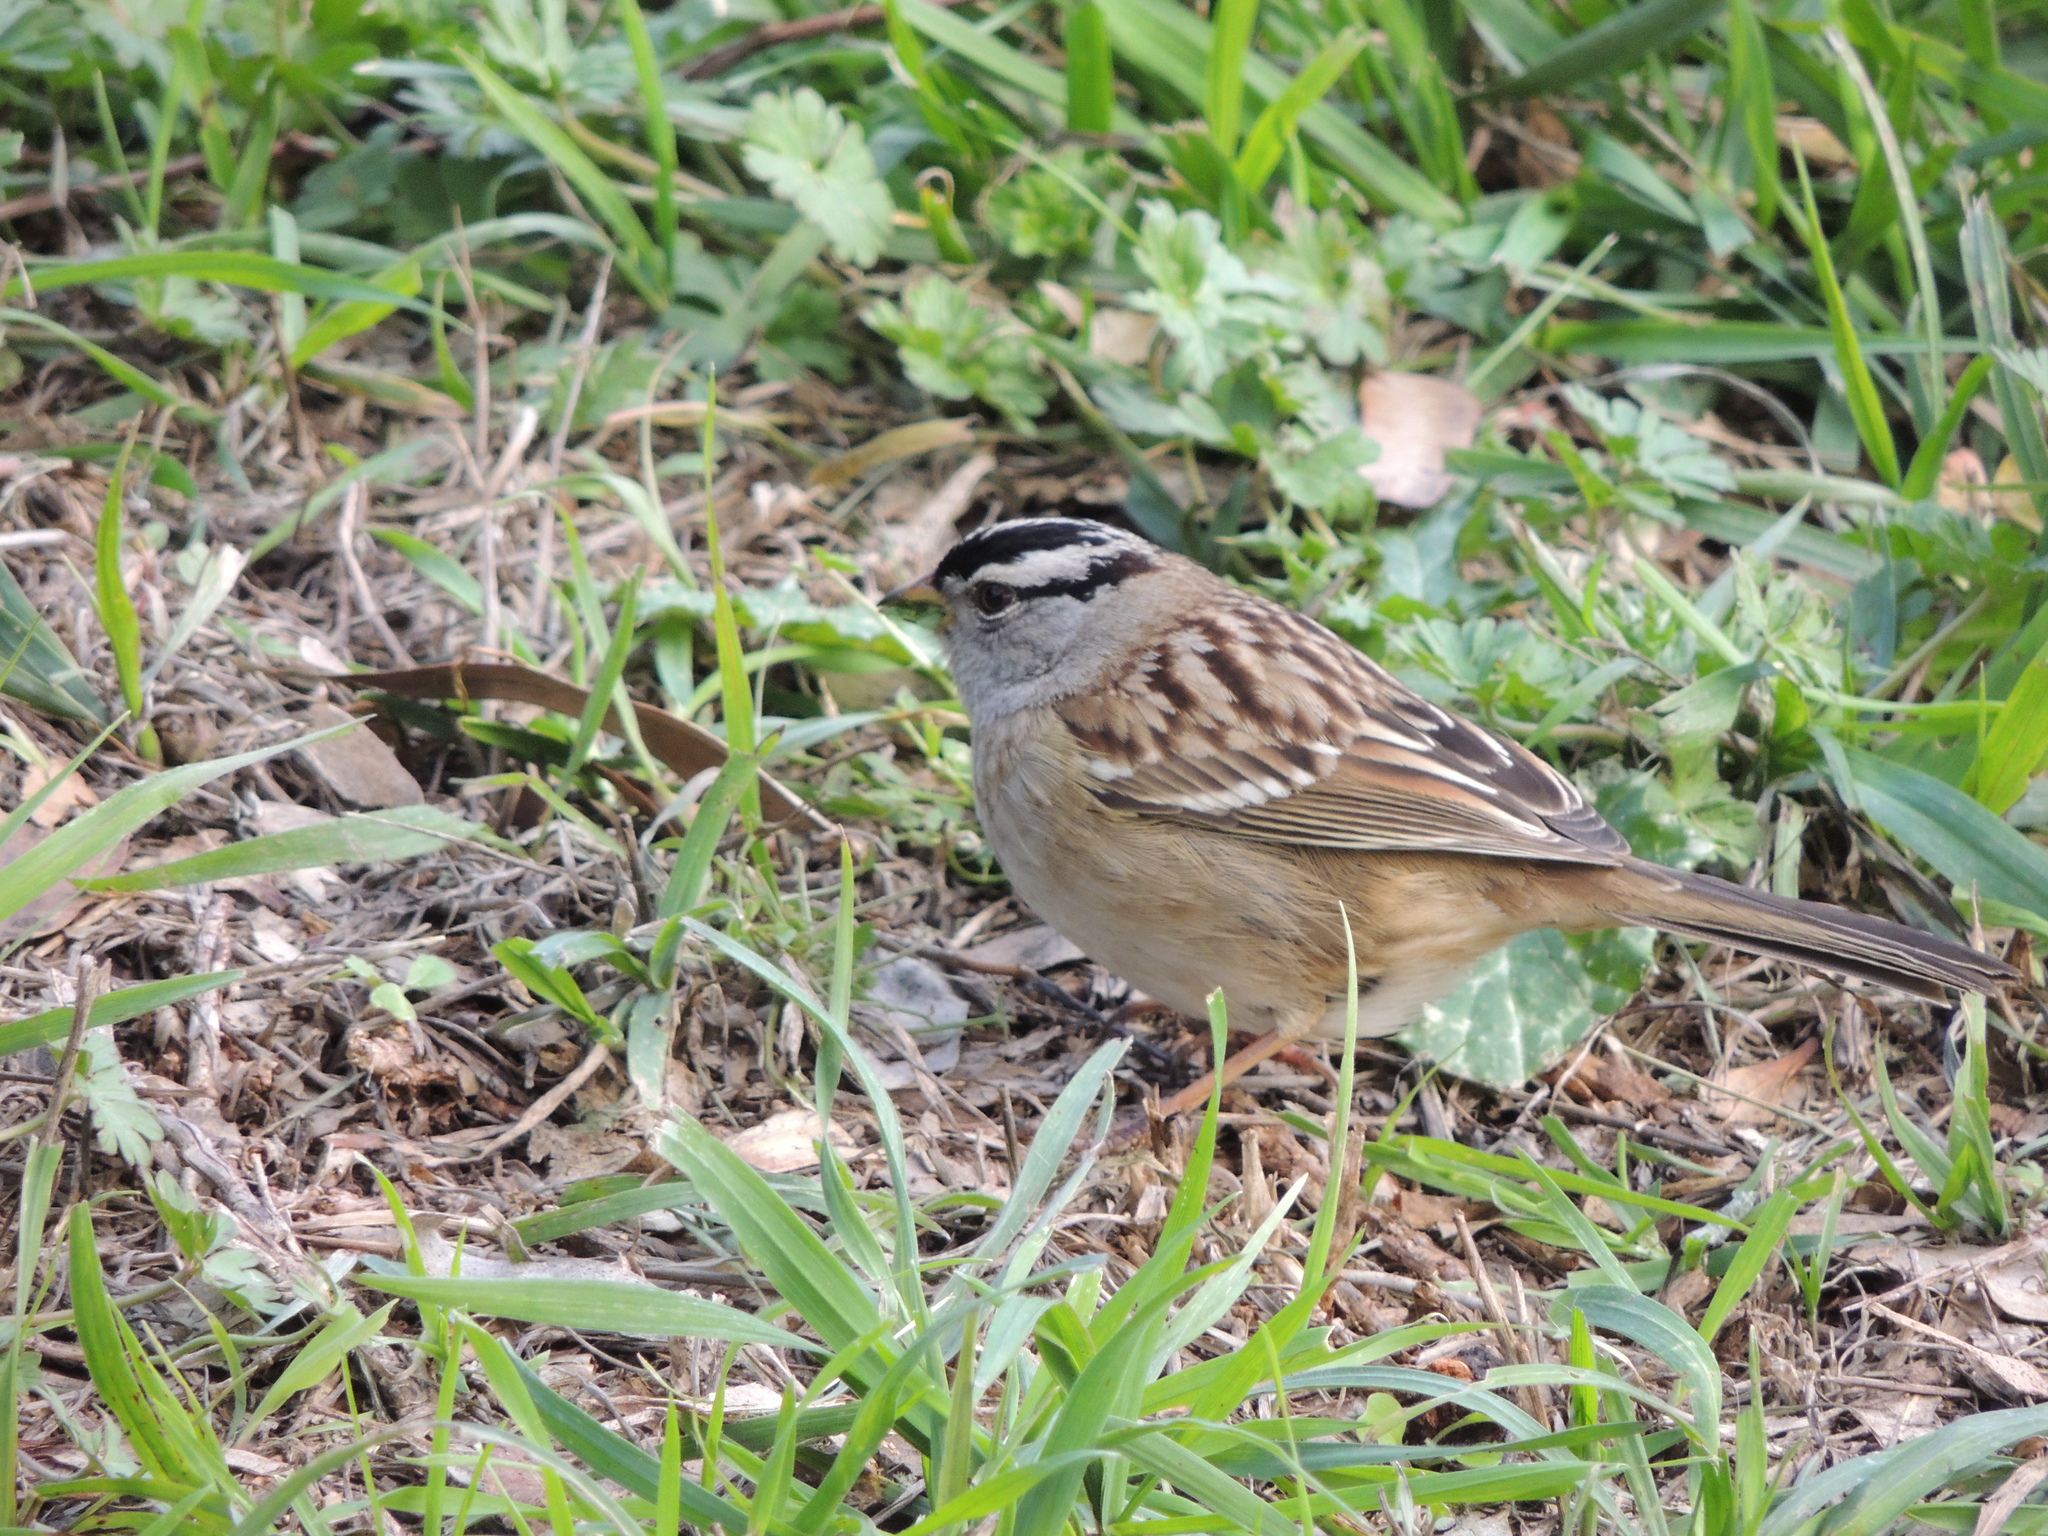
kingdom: Animalia
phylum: Chordata
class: Aves
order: Passeriformes
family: Passerellidae
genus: Zonotrichia
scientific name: Zonotrichia leucophrys
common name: White-crowned sparrow
